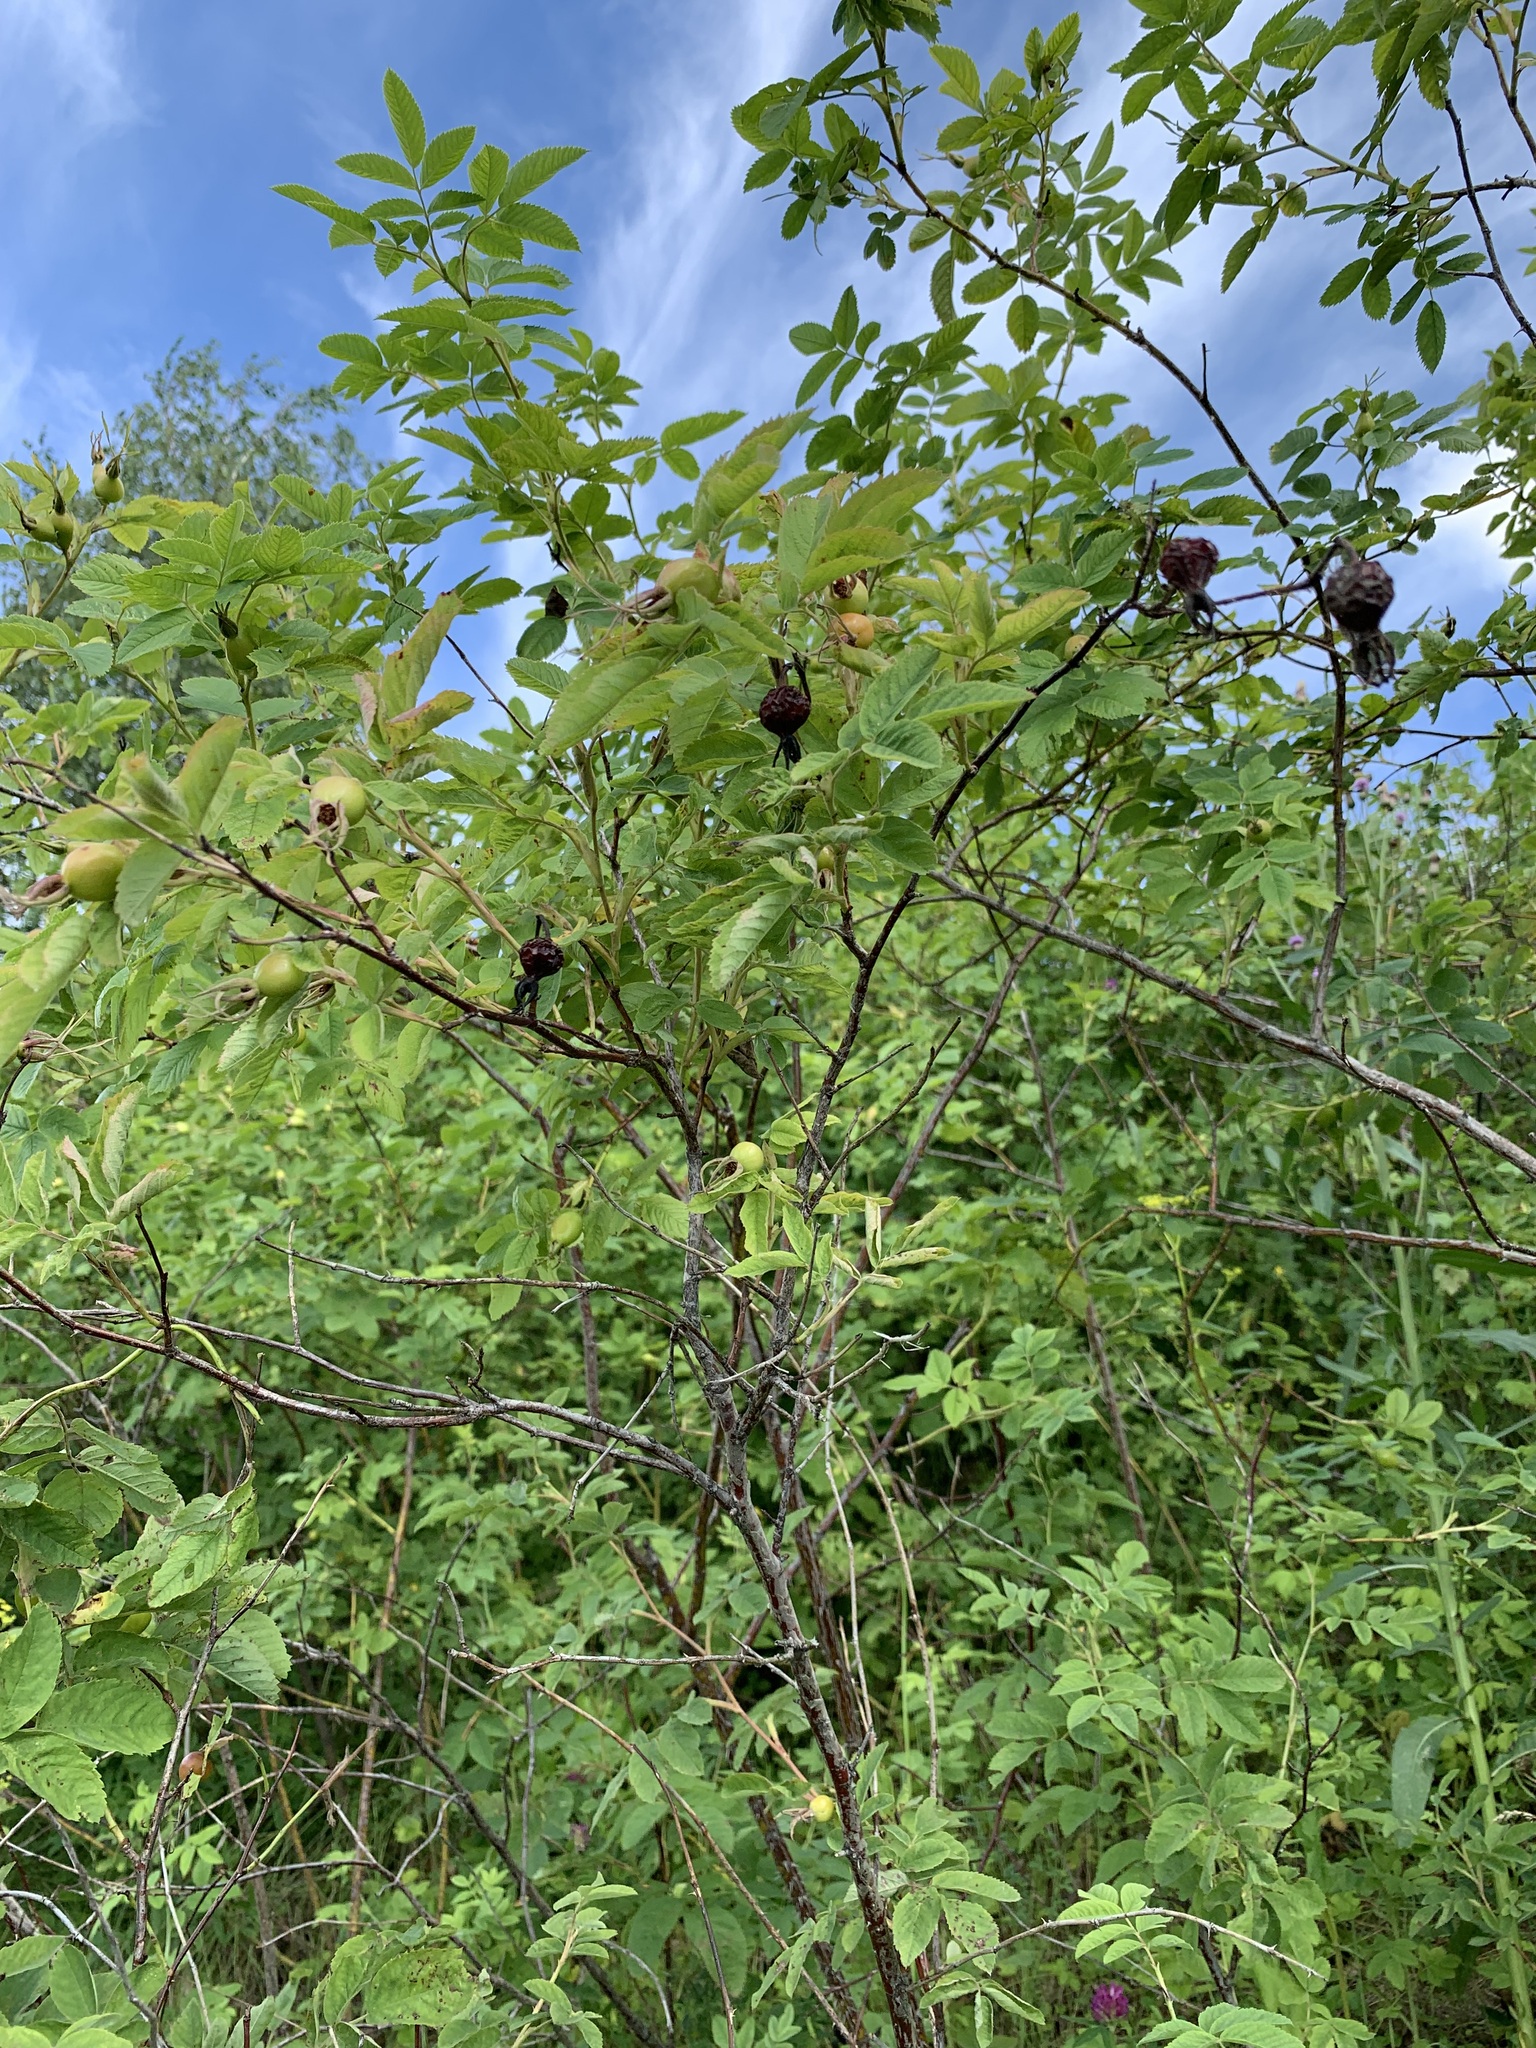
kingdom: Plantae
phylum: Tracheophyta
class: Magnoliopsida
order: Rosales
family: Rosaceae
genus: Rosa
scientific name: Rosa glabrifolia
